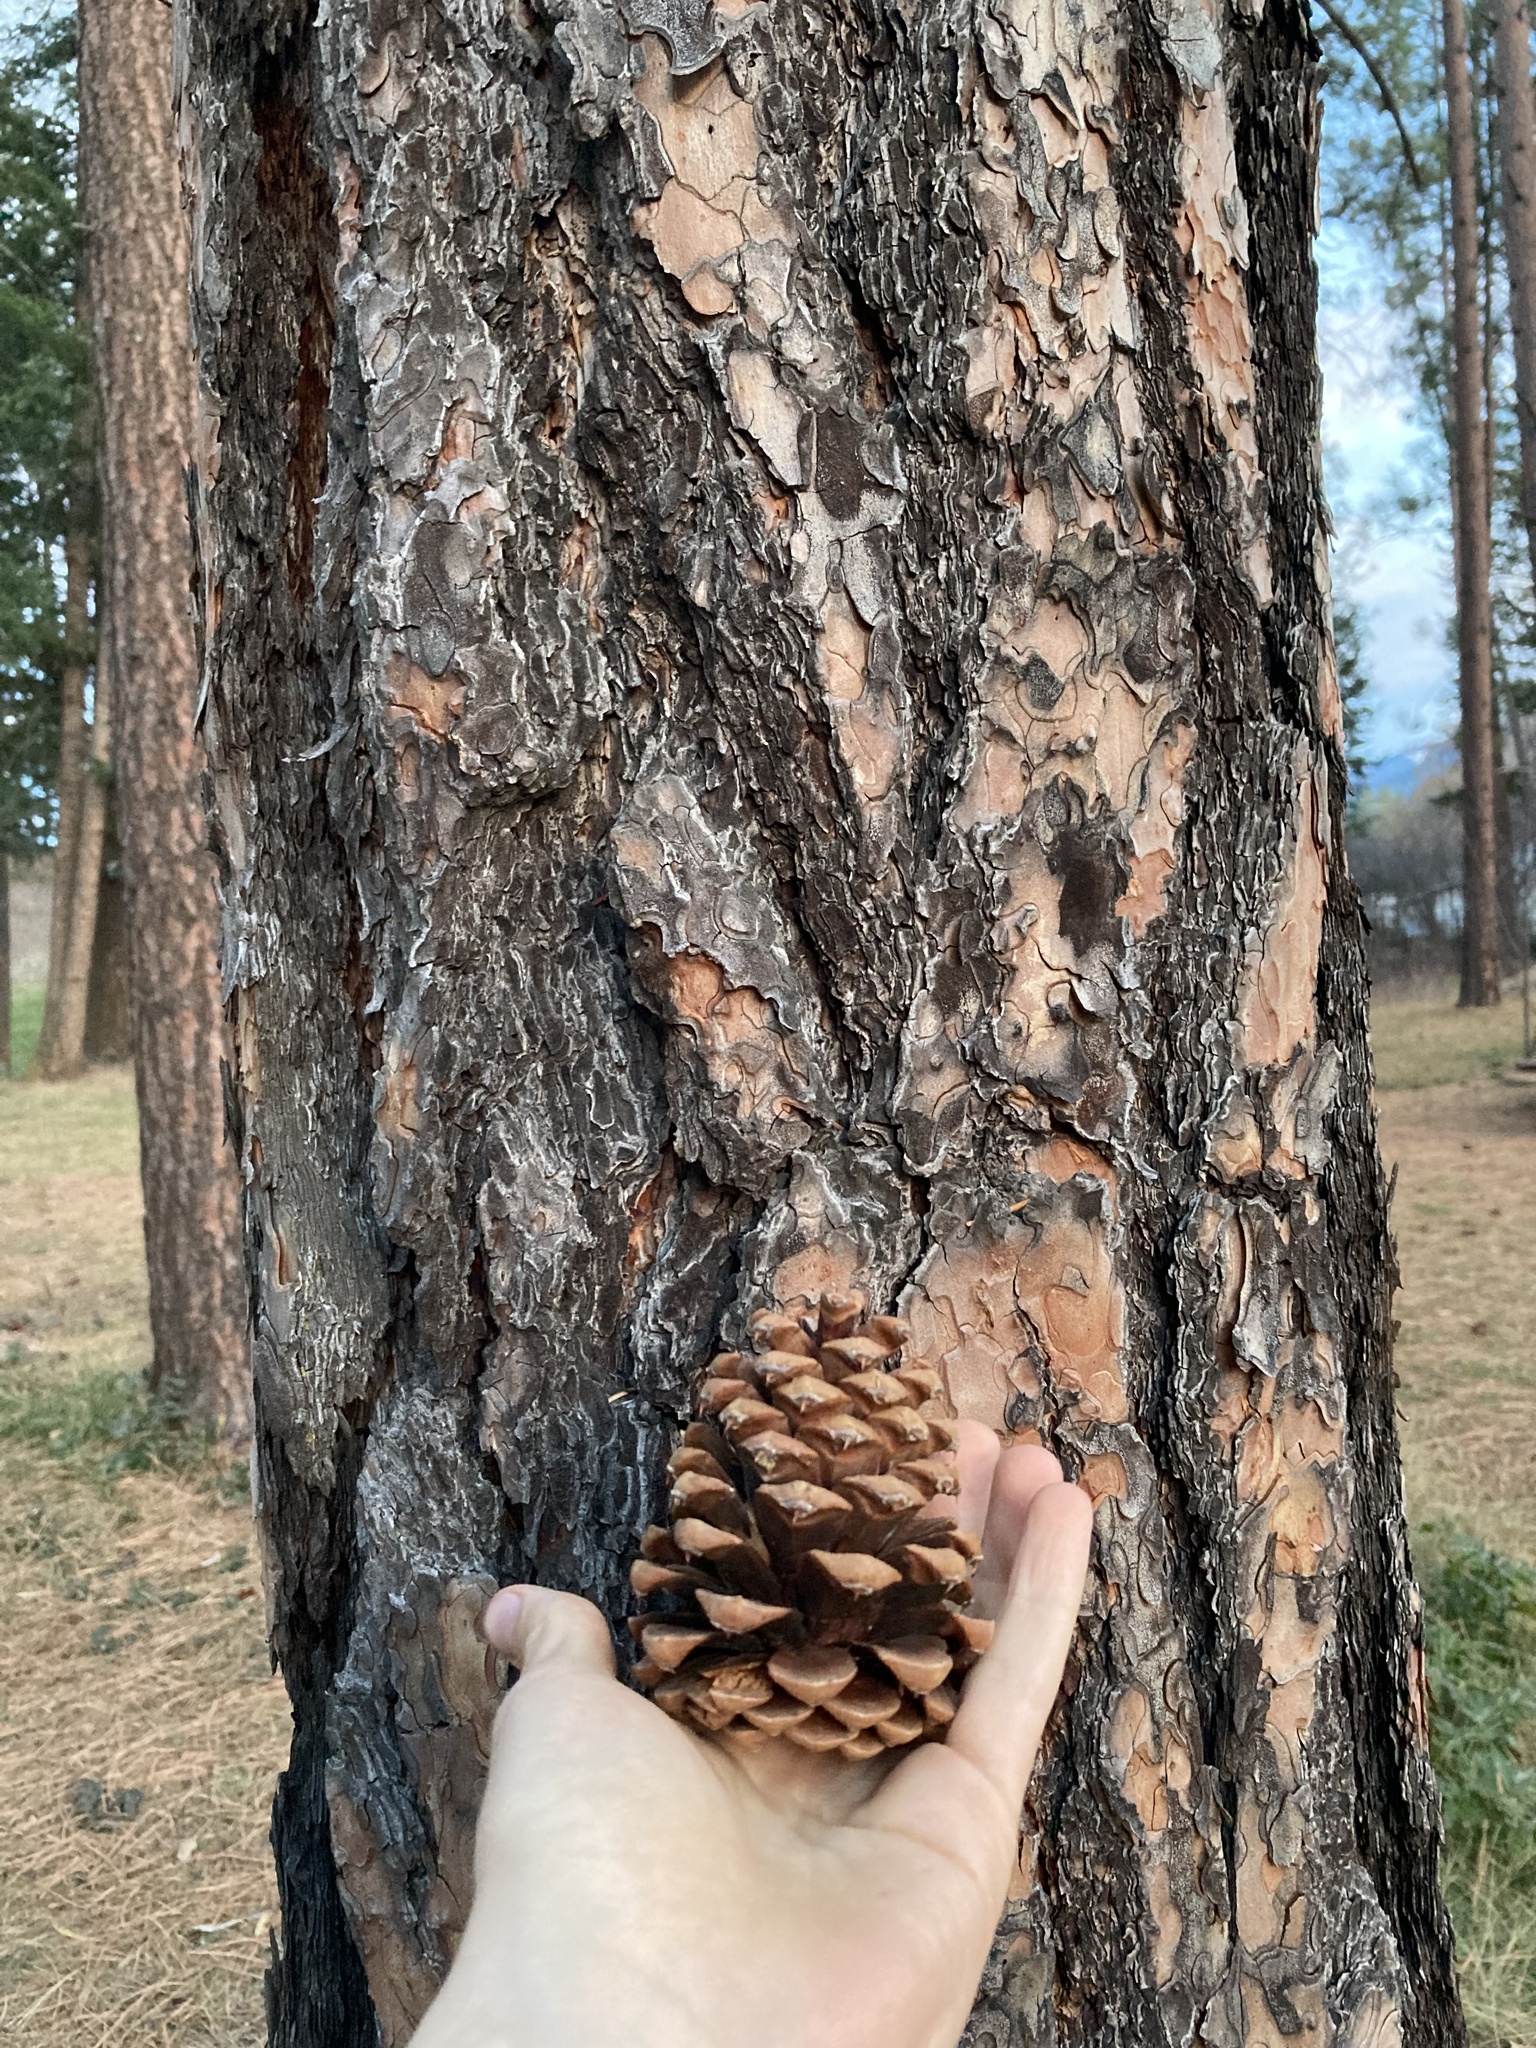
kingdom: Plantae
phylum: Tracheophyta
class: Pinopsida
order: Pinales
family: Pinaceae
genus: Pinus
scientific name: Pinus ponderosa
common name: Western yellow-pine
